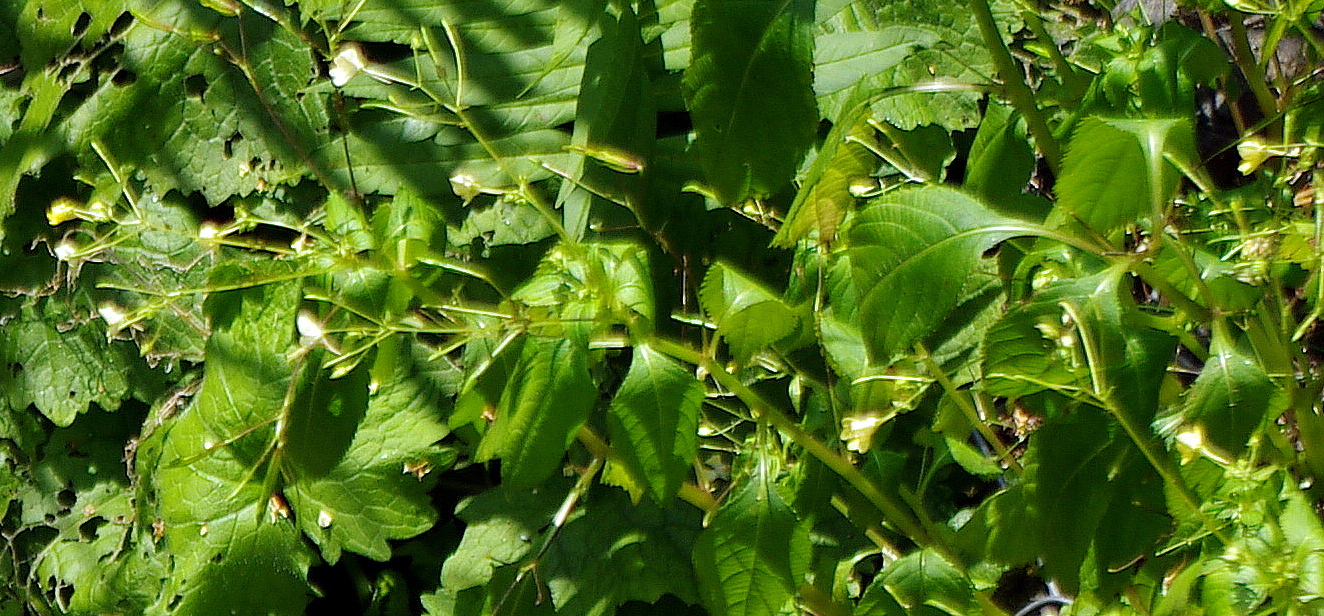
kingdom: Plantae
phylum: Tracheophyta
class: Magnoliopsida
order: Ericales
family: Balsaminaceae
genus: Impatiens
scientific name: Impatiens parviflora
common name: Small balsam
